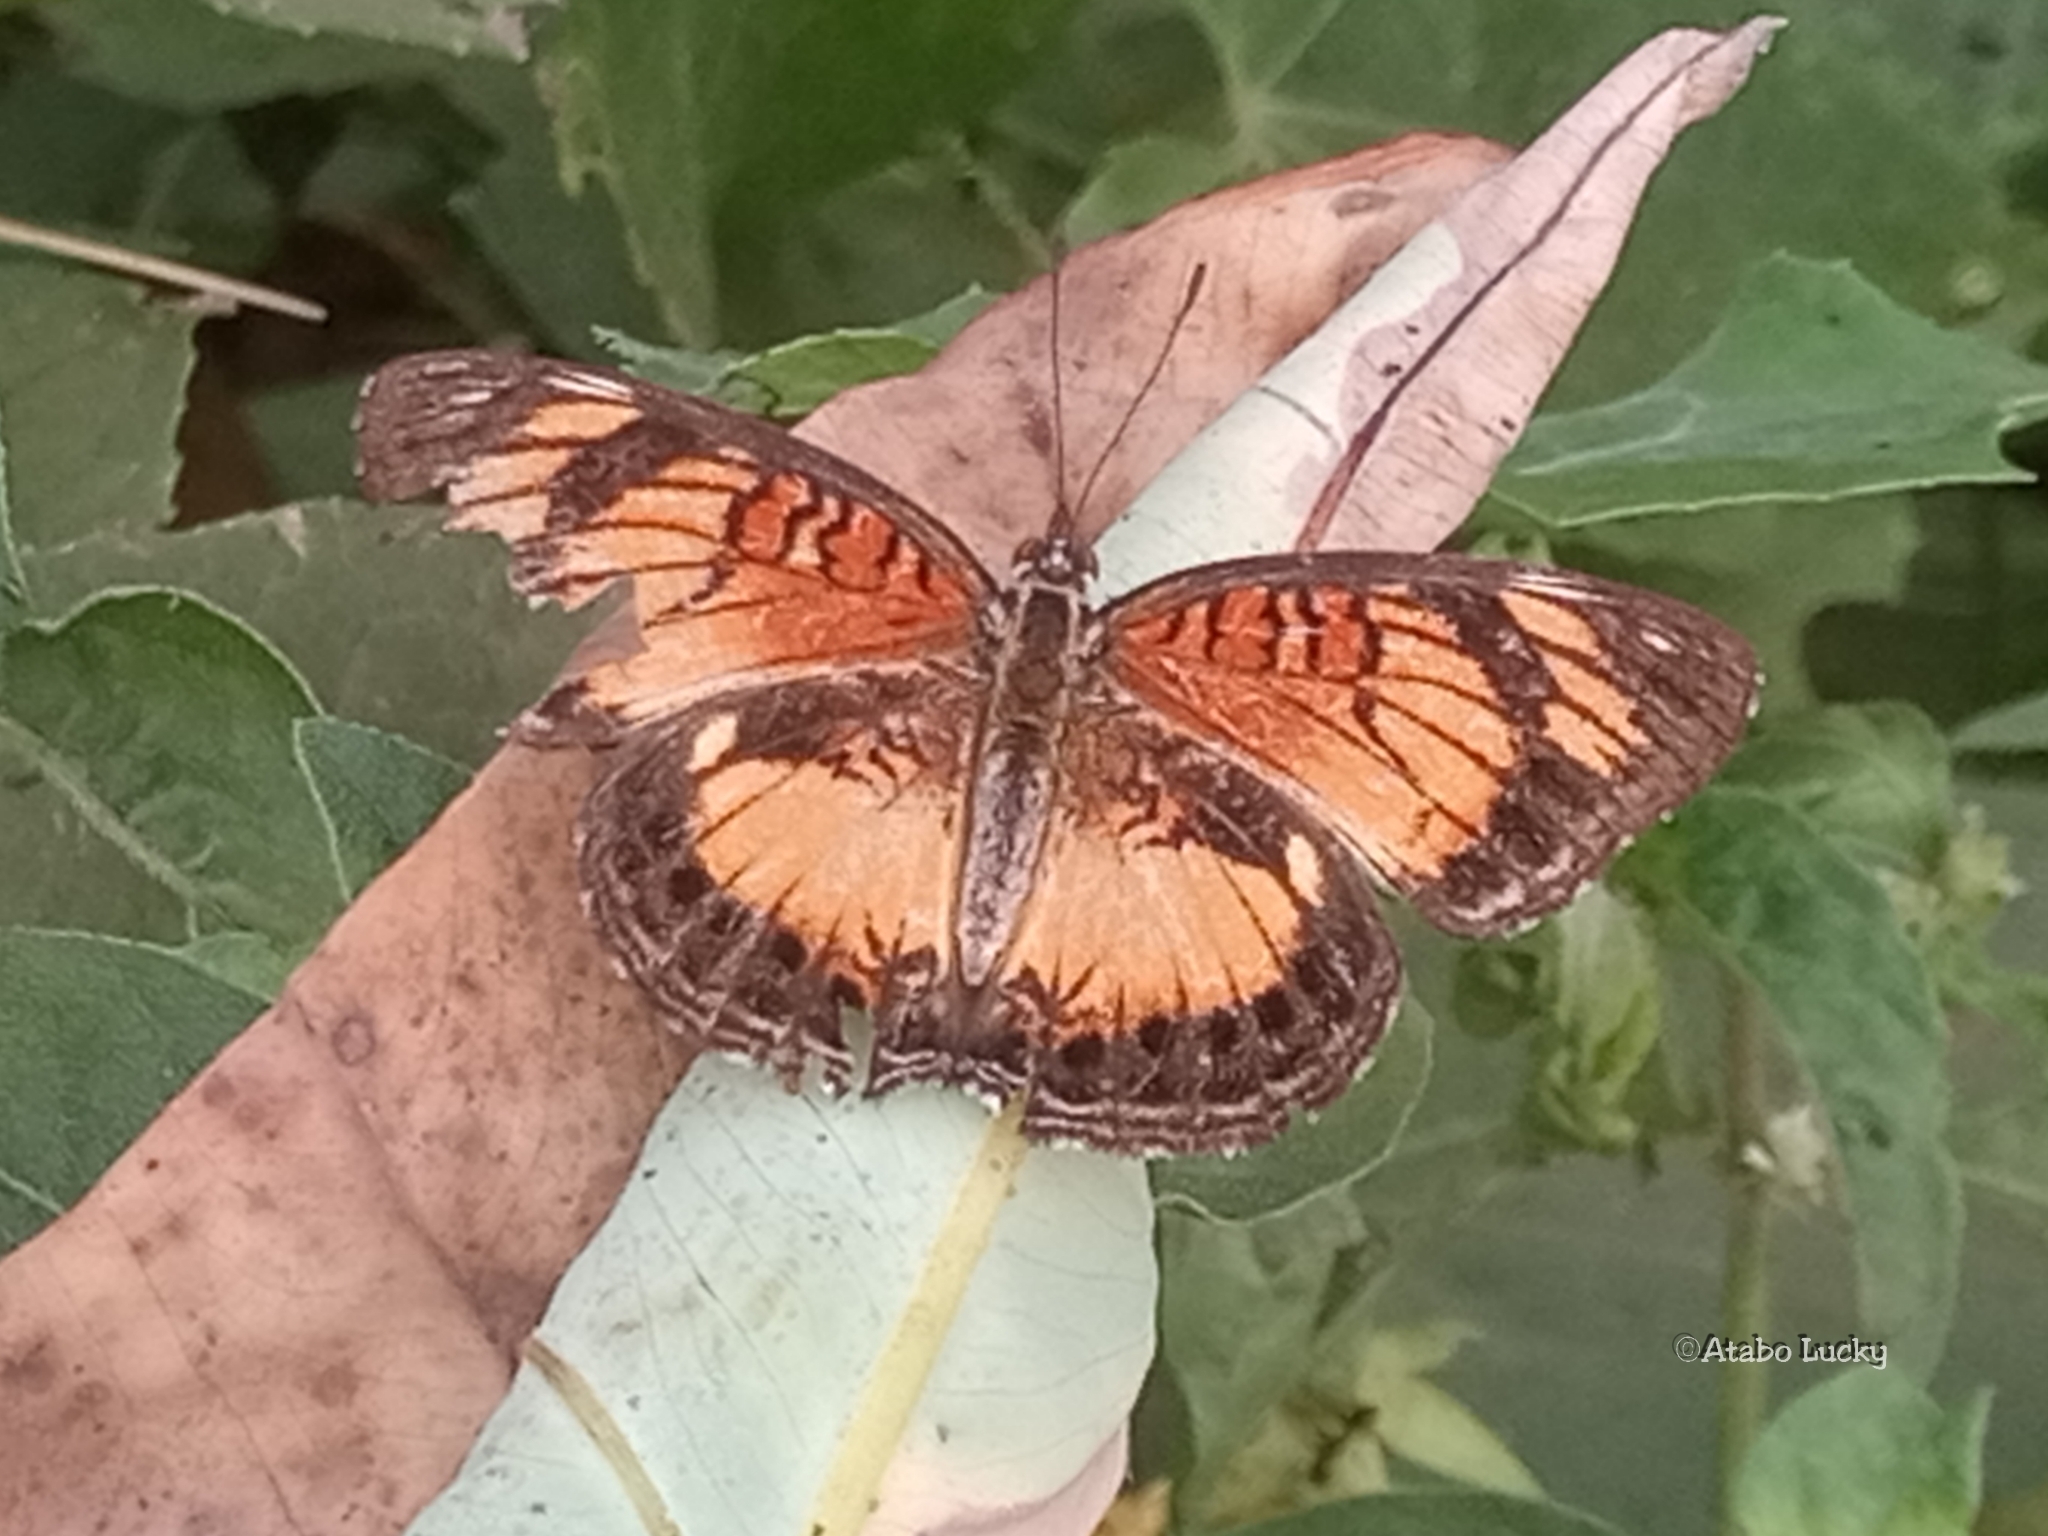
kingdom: Animalia
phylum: Arthropoda
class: Insecta
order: Lepidoptera
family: Nymphalidae
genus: Junonia
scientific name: Junonia sophia
